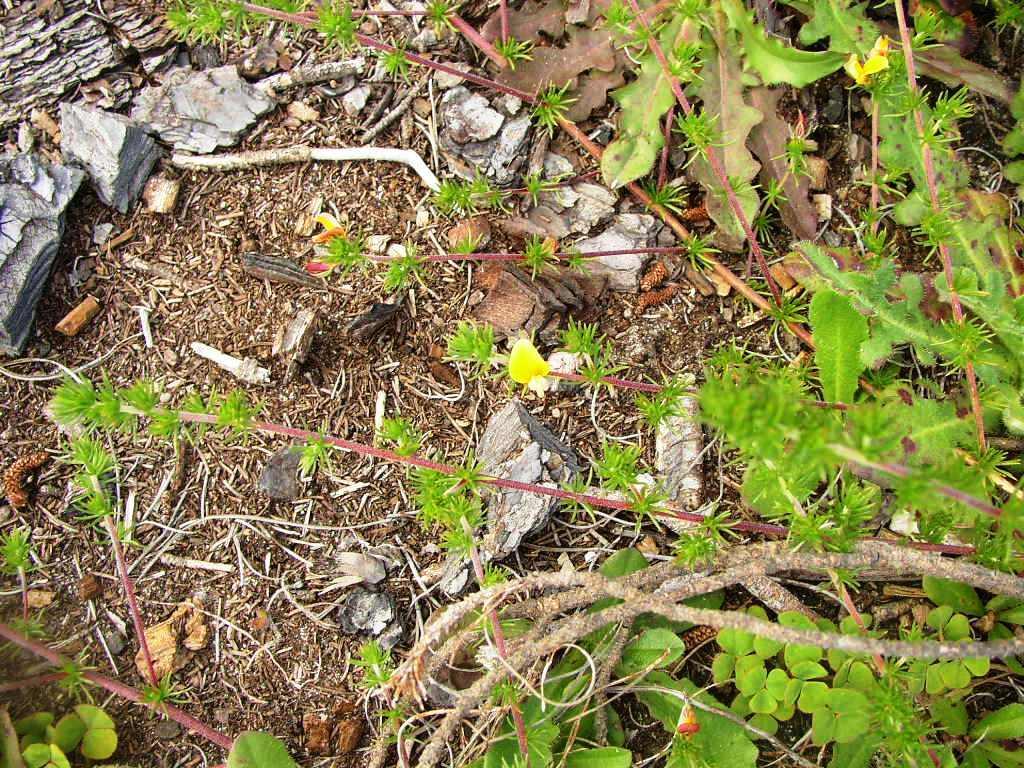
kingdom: Plantae
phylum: Tracheophyta
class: Magnoliopsida
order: Fabales
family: Fabaceae
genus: Aspalathus
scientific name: Aspalathus retroflexa
